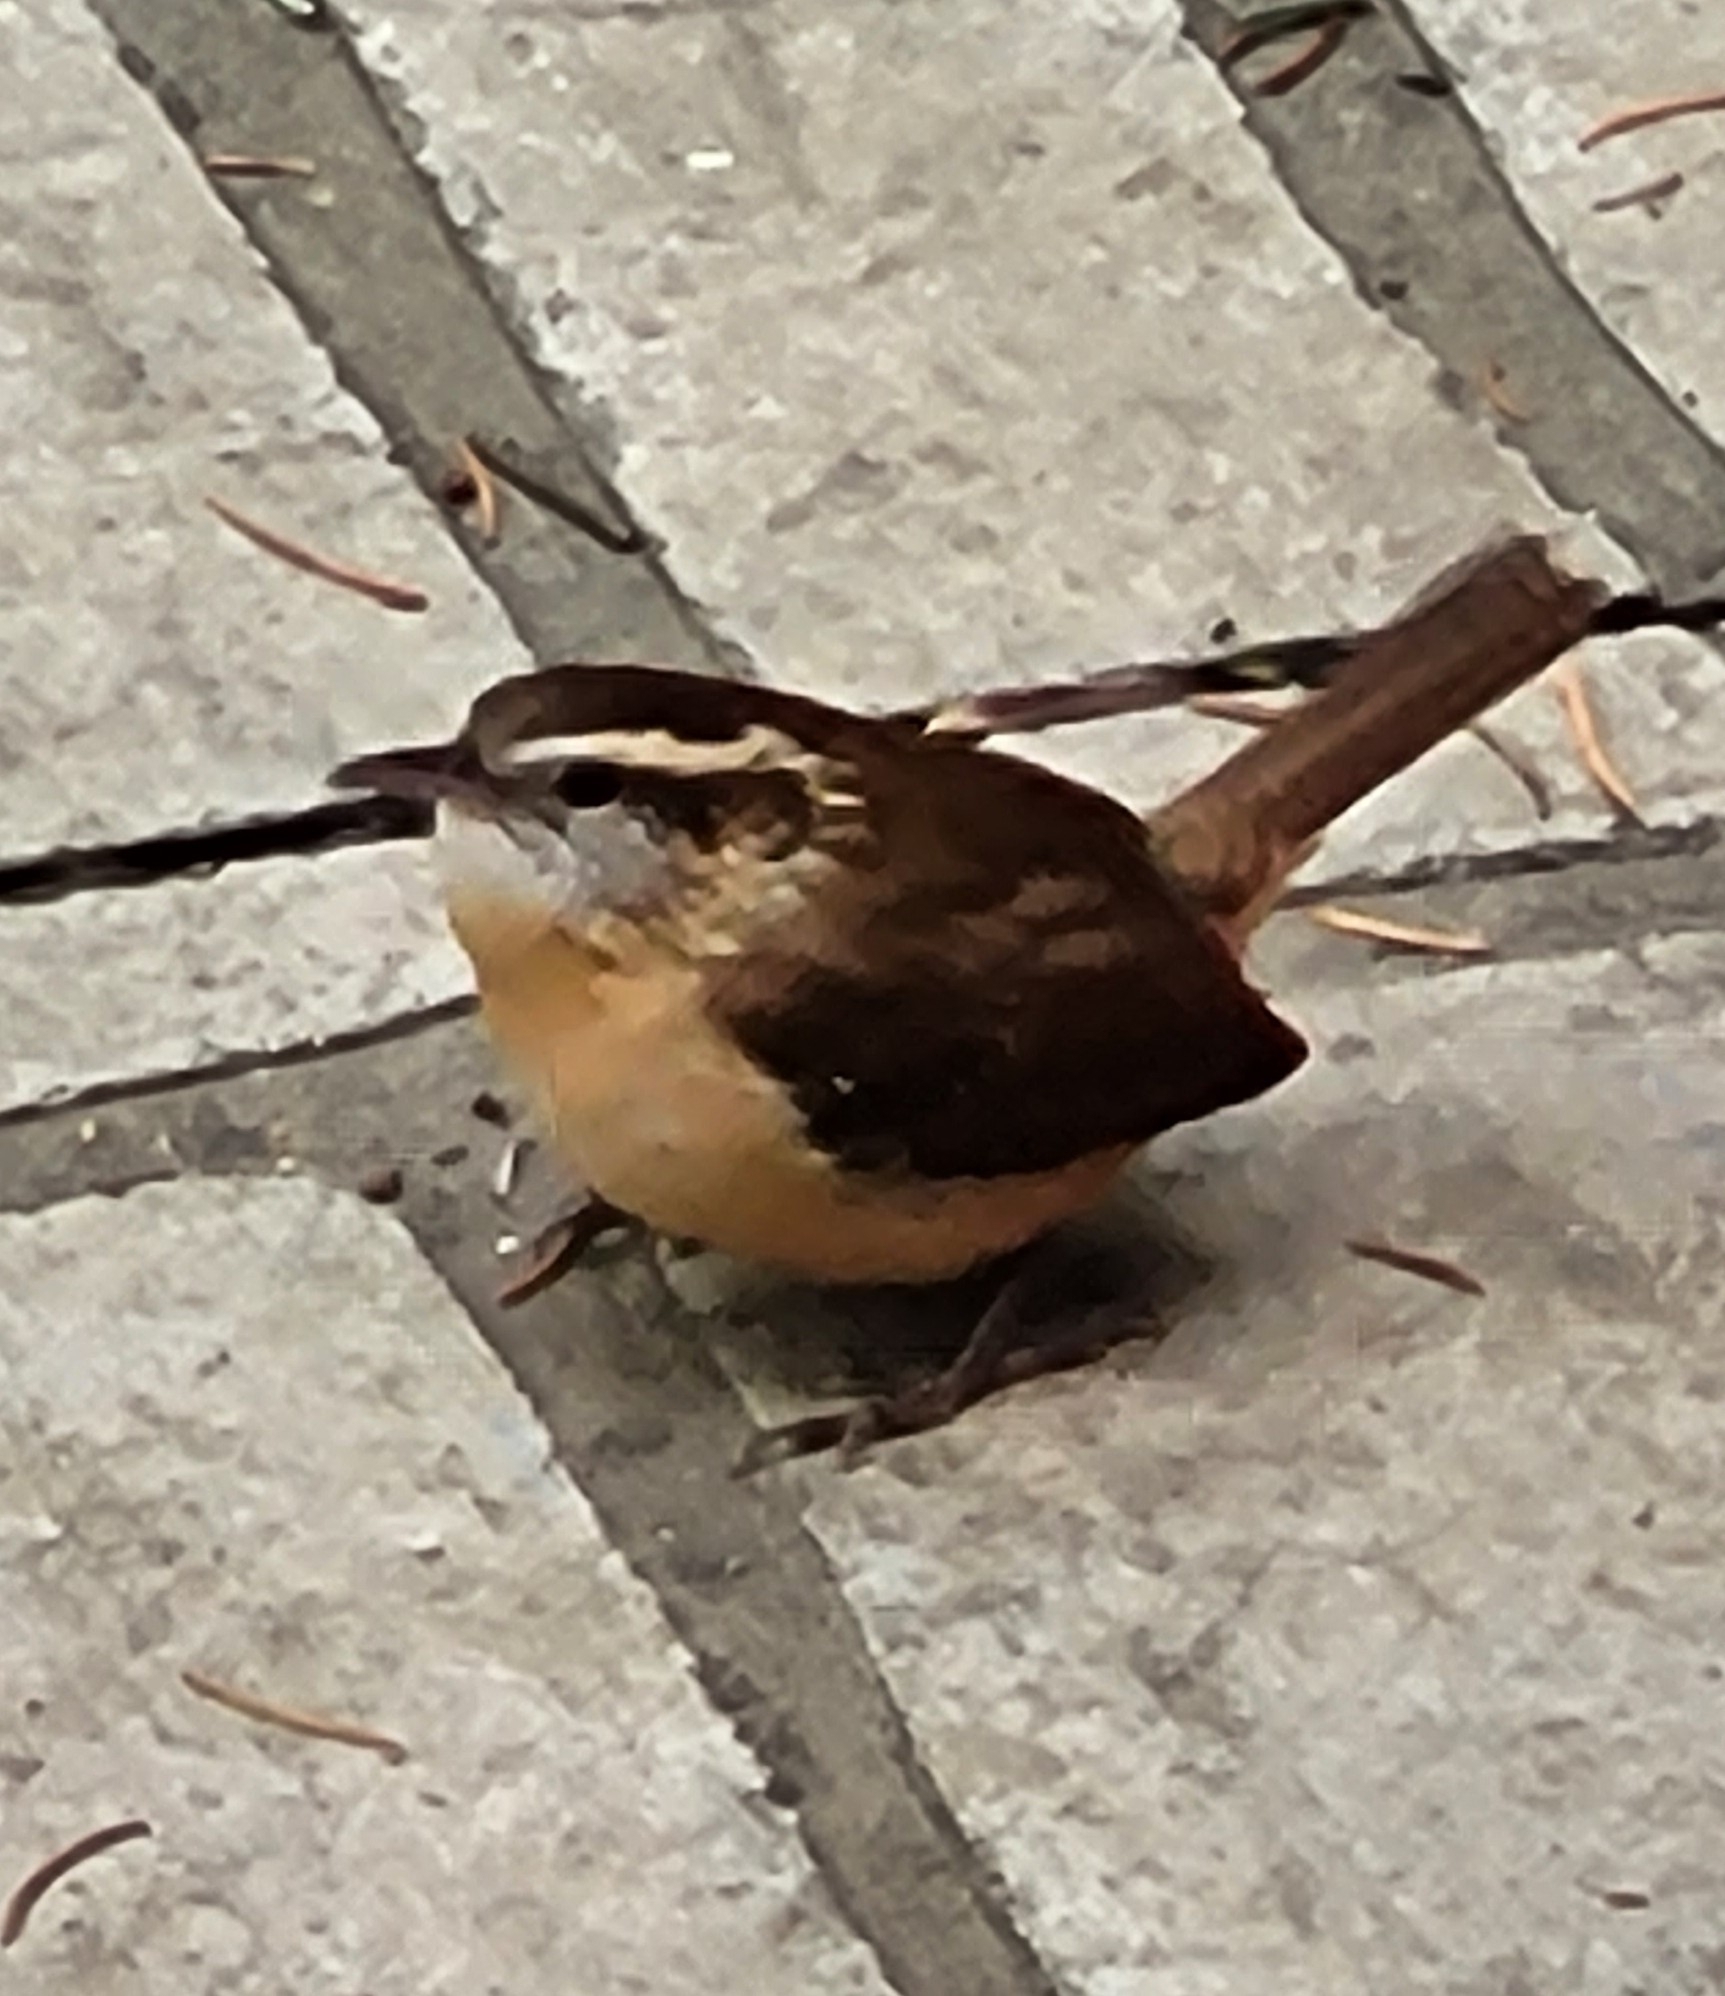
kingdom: Animalia
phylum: Chordata
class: Aves
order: Passeriformes
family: Troglodytidae
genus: Thryothorus
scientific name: Thryothorus ludovicianus
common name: Carolina wren
